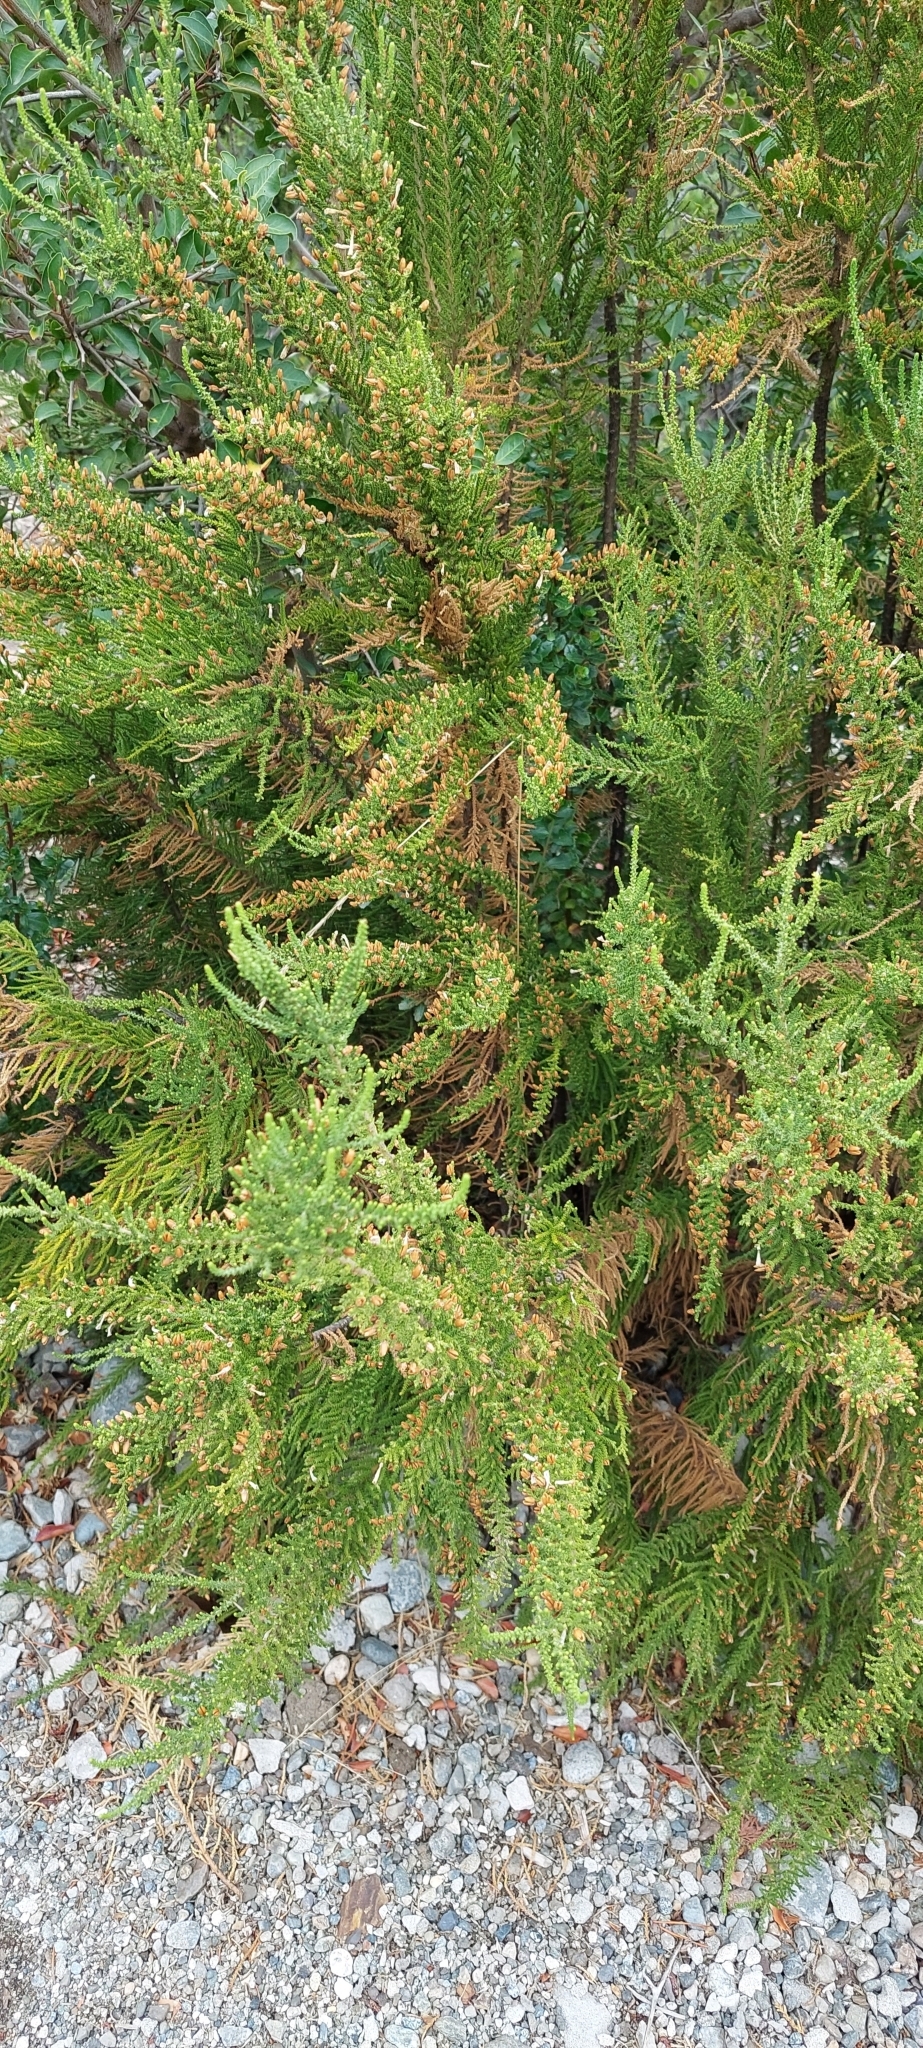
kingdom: Plantae
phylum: Tracheophyta
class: Magnoliopsida
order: Solanales
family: Solanaceae
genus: Fabiana
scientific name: Fabiana imbricata
